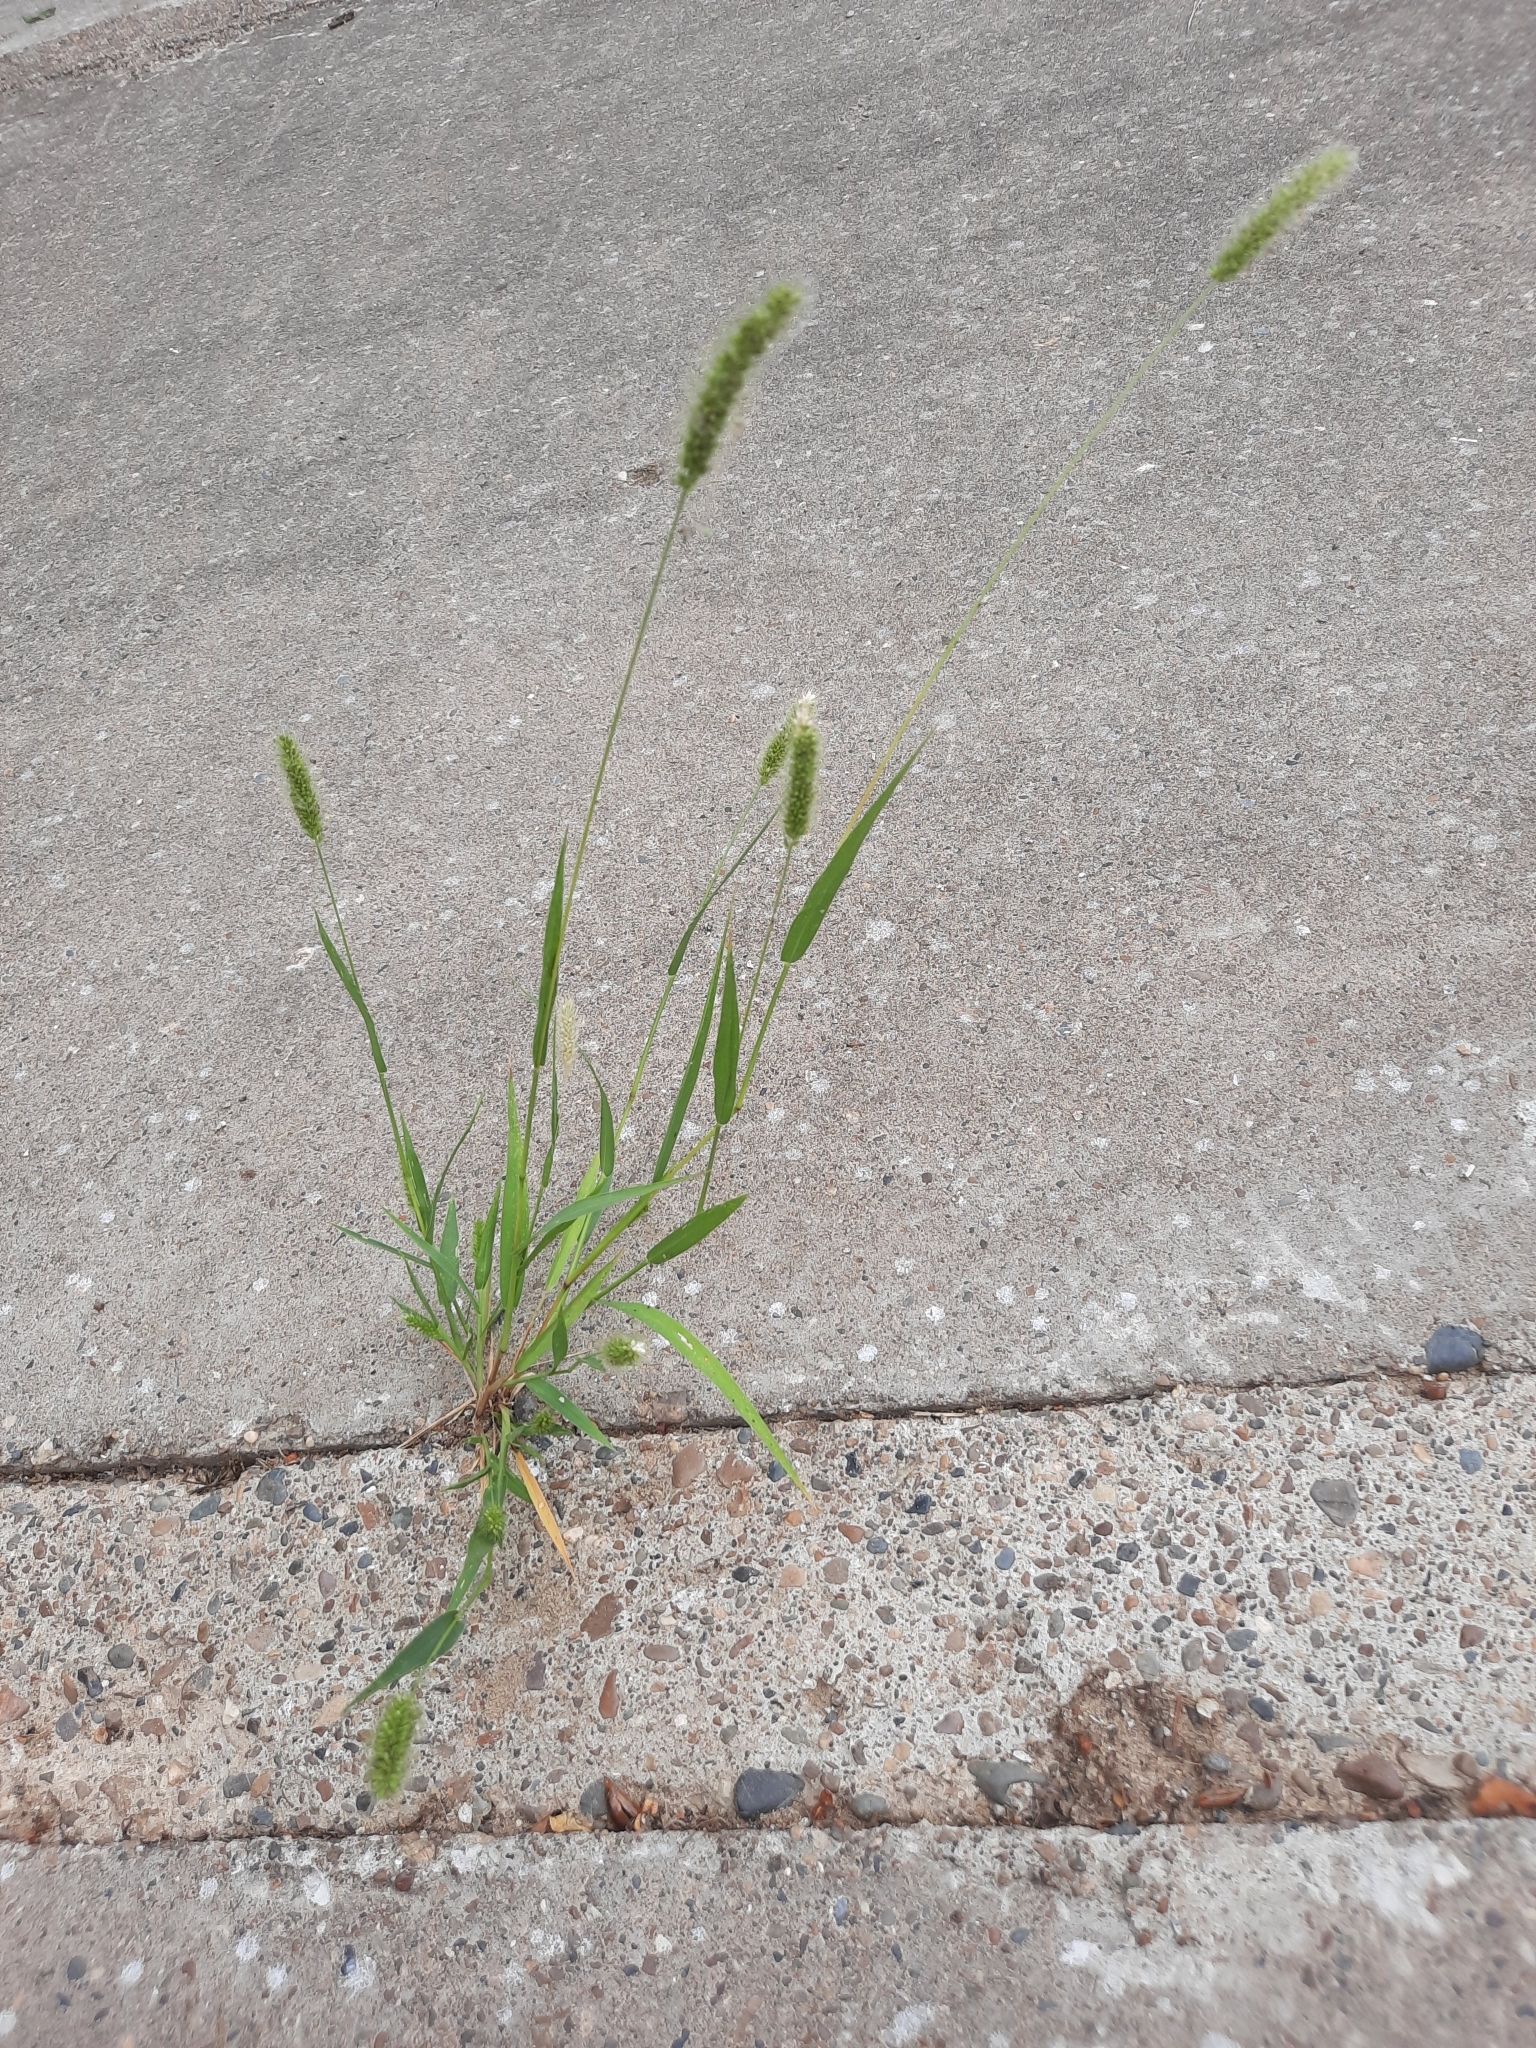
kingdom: Plantae
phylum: Tracheophyta
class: Liliopsida
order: Poales
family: Poaceae
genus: Setaria
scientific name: Setaria viridis
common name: Green bristlegrass
